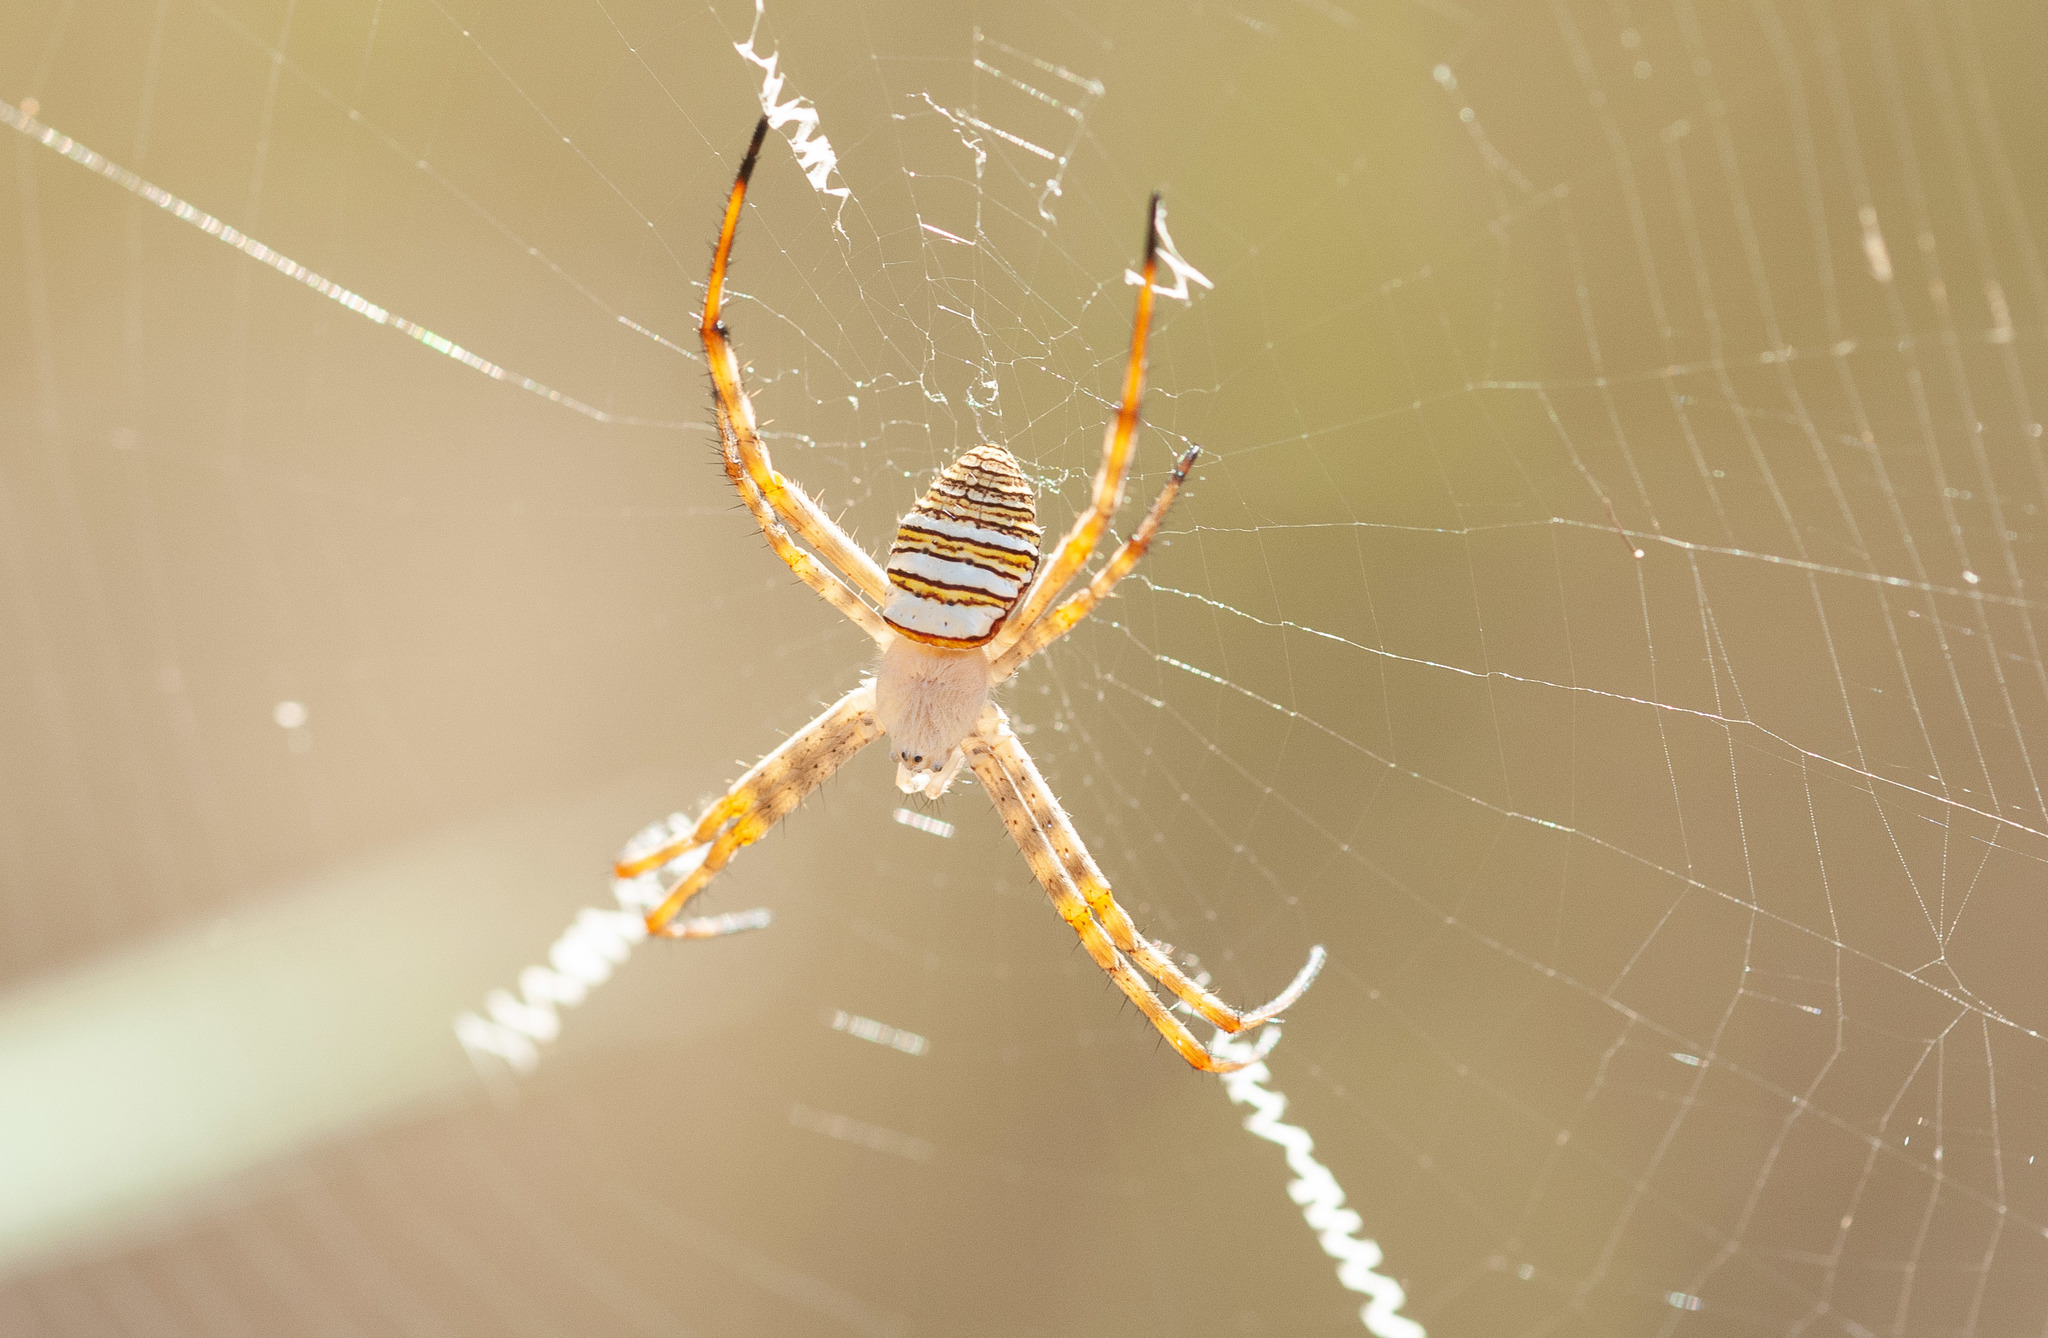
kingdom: Animalia
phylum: Arthropoda
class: Arachnida
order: Araneae
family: Araneidae
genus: Argiope
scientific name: Argiope magnifica
